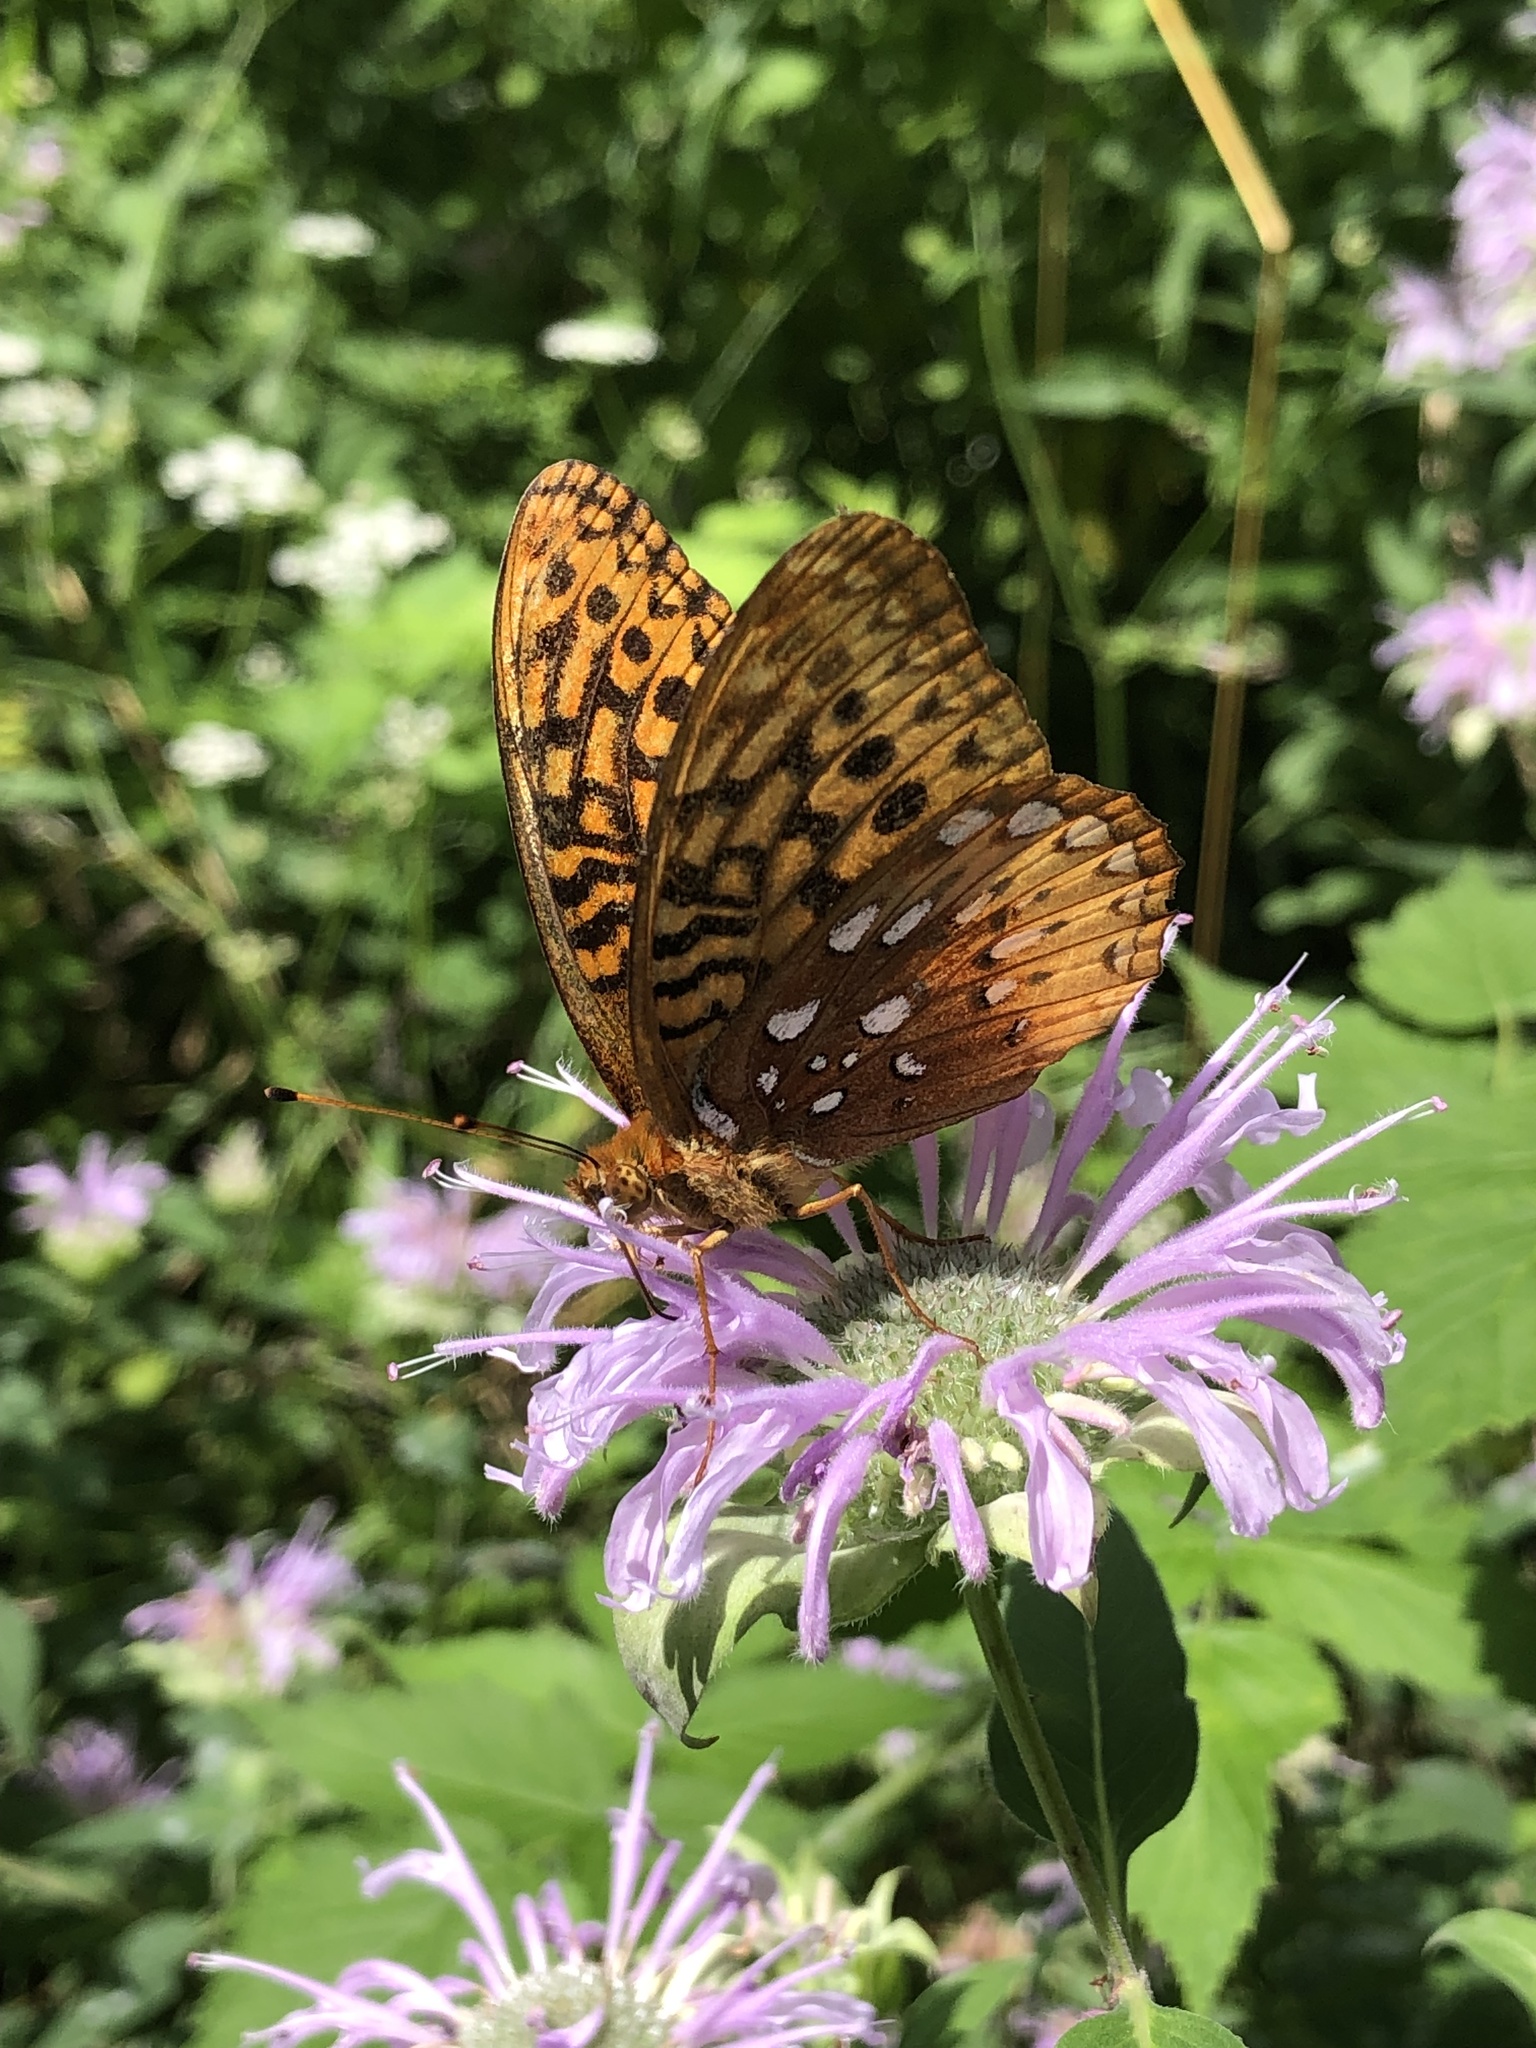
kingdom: Animalia
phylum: Arthropoda
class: Insecta
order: Lepidoptera
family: Nymphalidae
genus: Speyeria
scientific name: Speyeria cybele
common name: Great spangled fritillary
